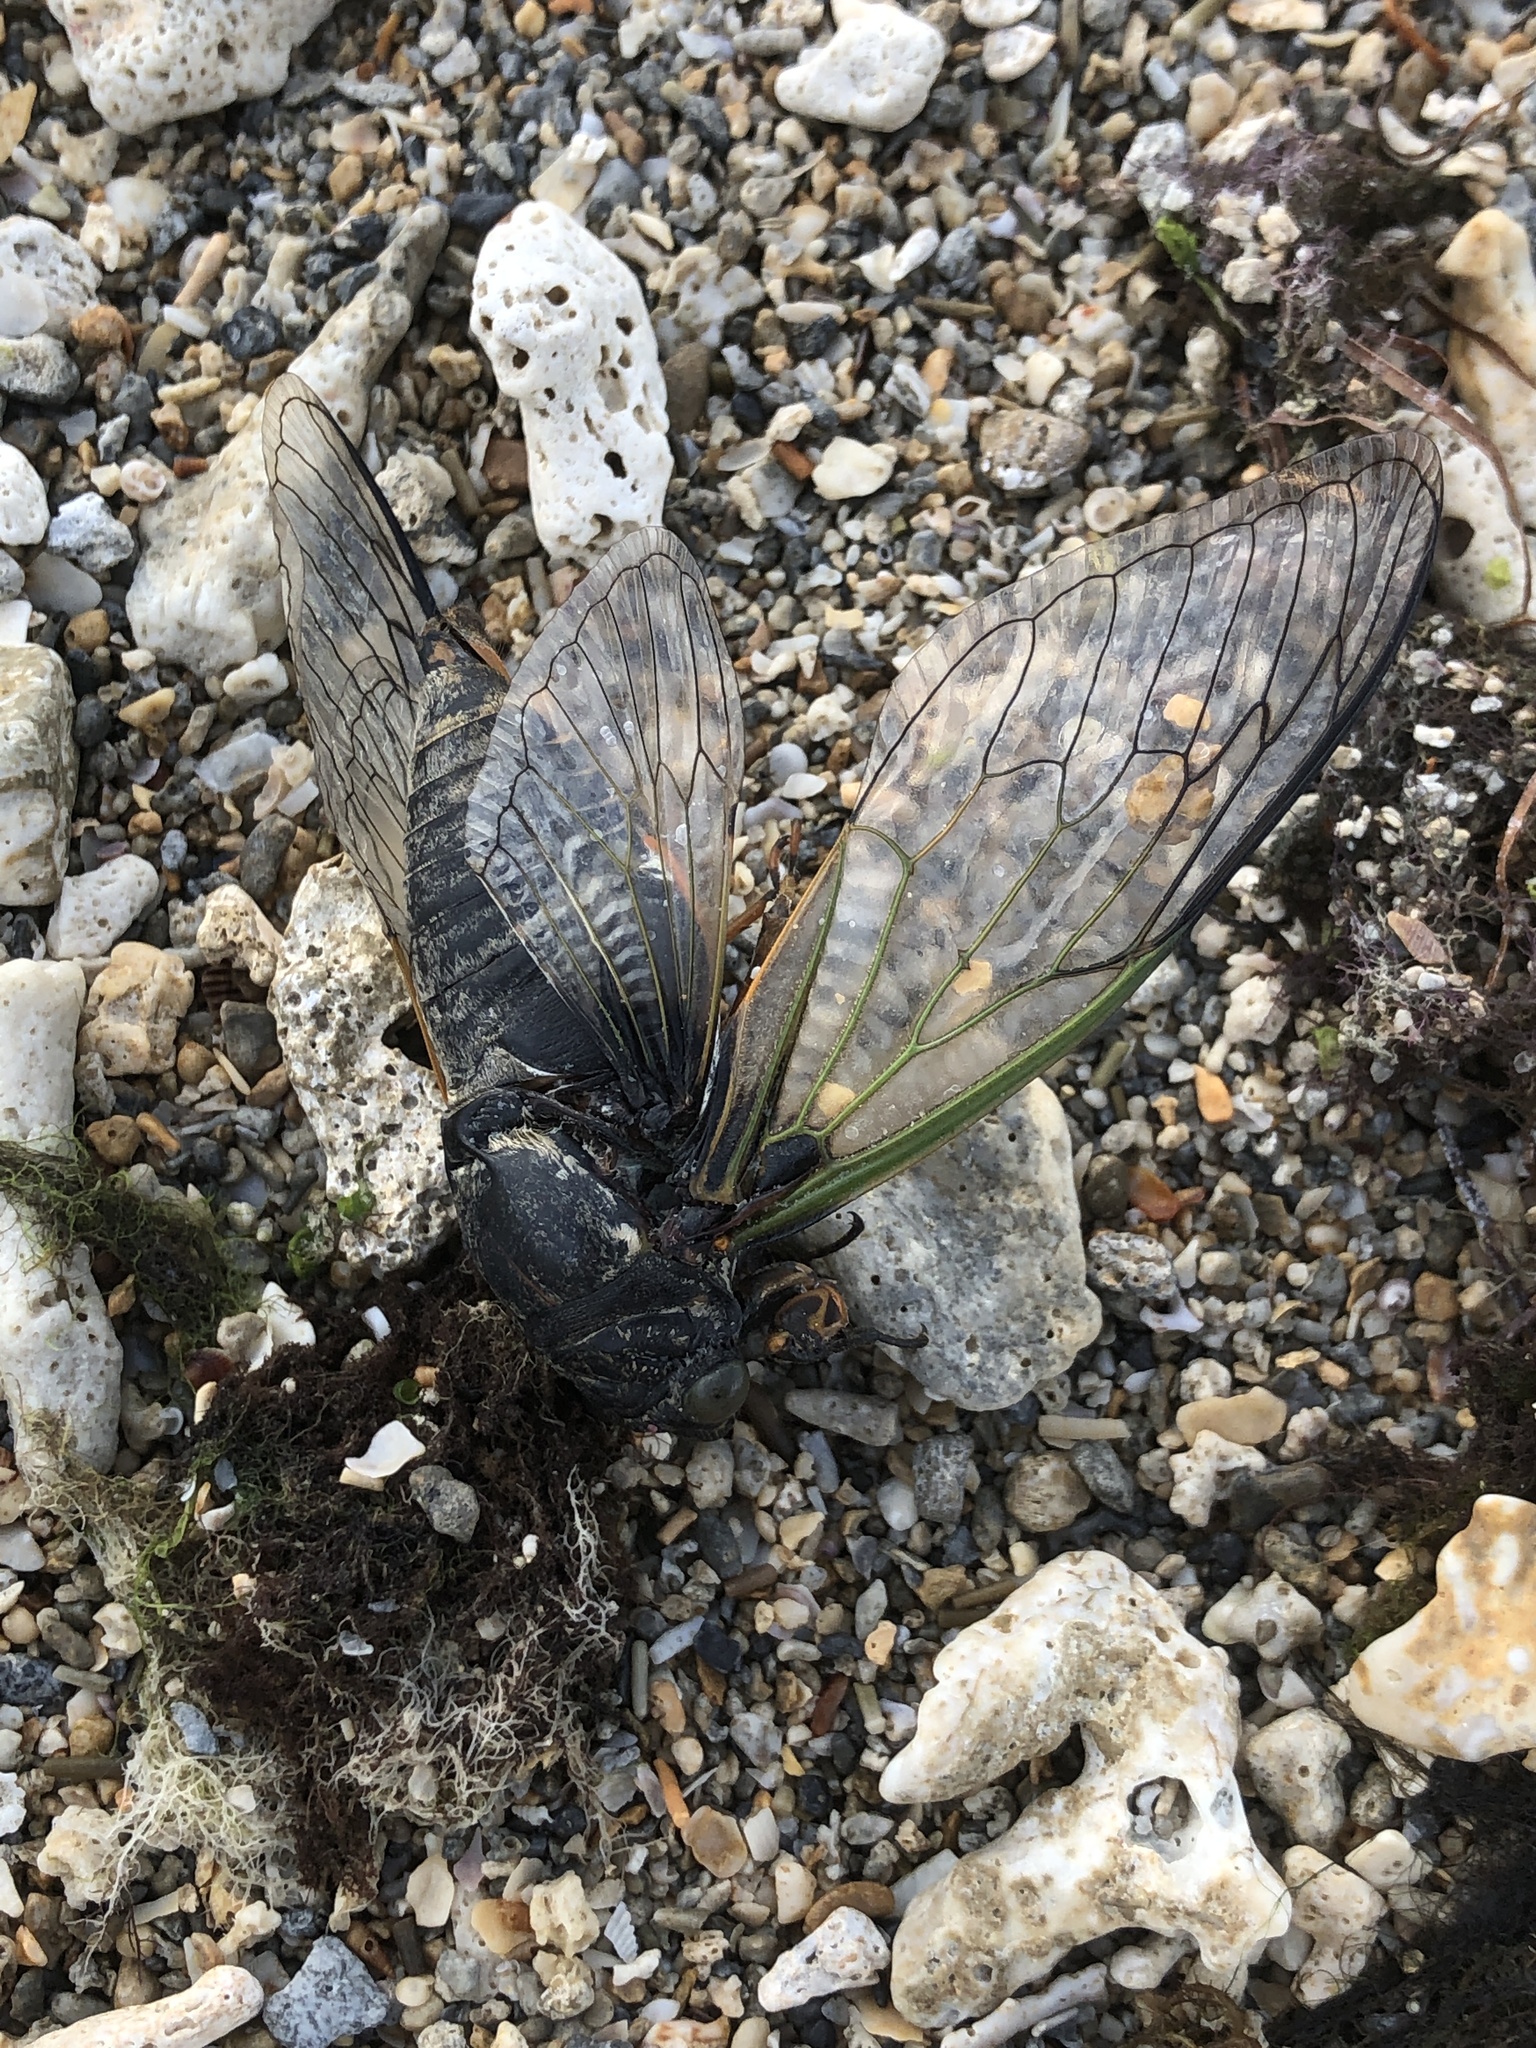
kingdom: Animalia
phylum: Arthropoda
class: Insecta
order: Hemiptera
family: Cicadidae
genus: Cryptotympana
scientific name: Cryptotympana facialis
